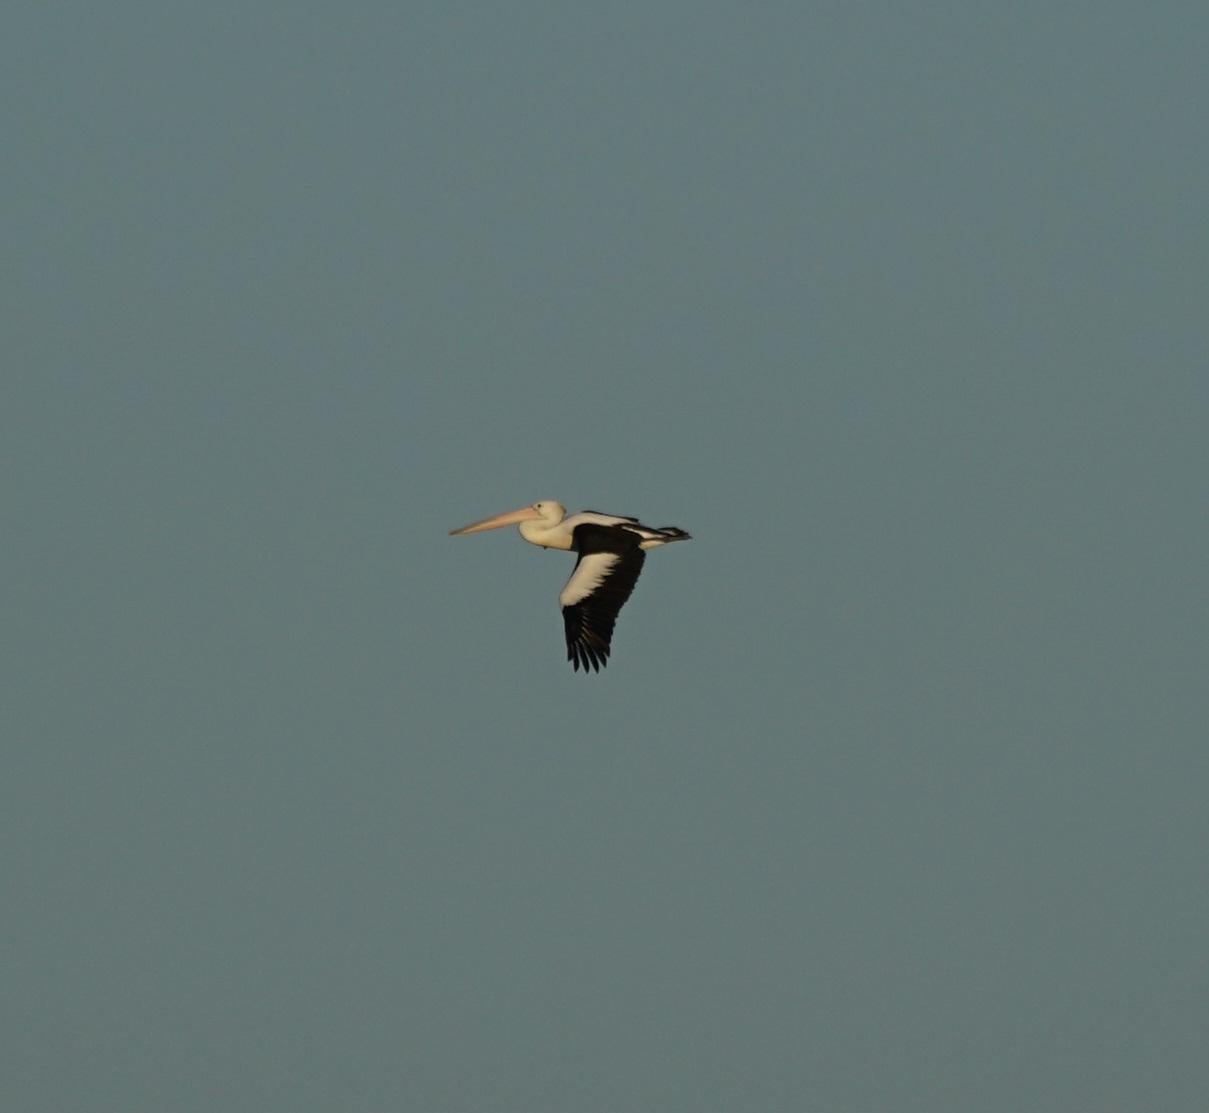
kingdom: Animalia
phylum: Chordata
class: Aves
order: Pelecaniformes
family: Pelecanidae
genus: Pelecanus
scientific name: Pelecanus conspicillatus
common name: Australian pelican
